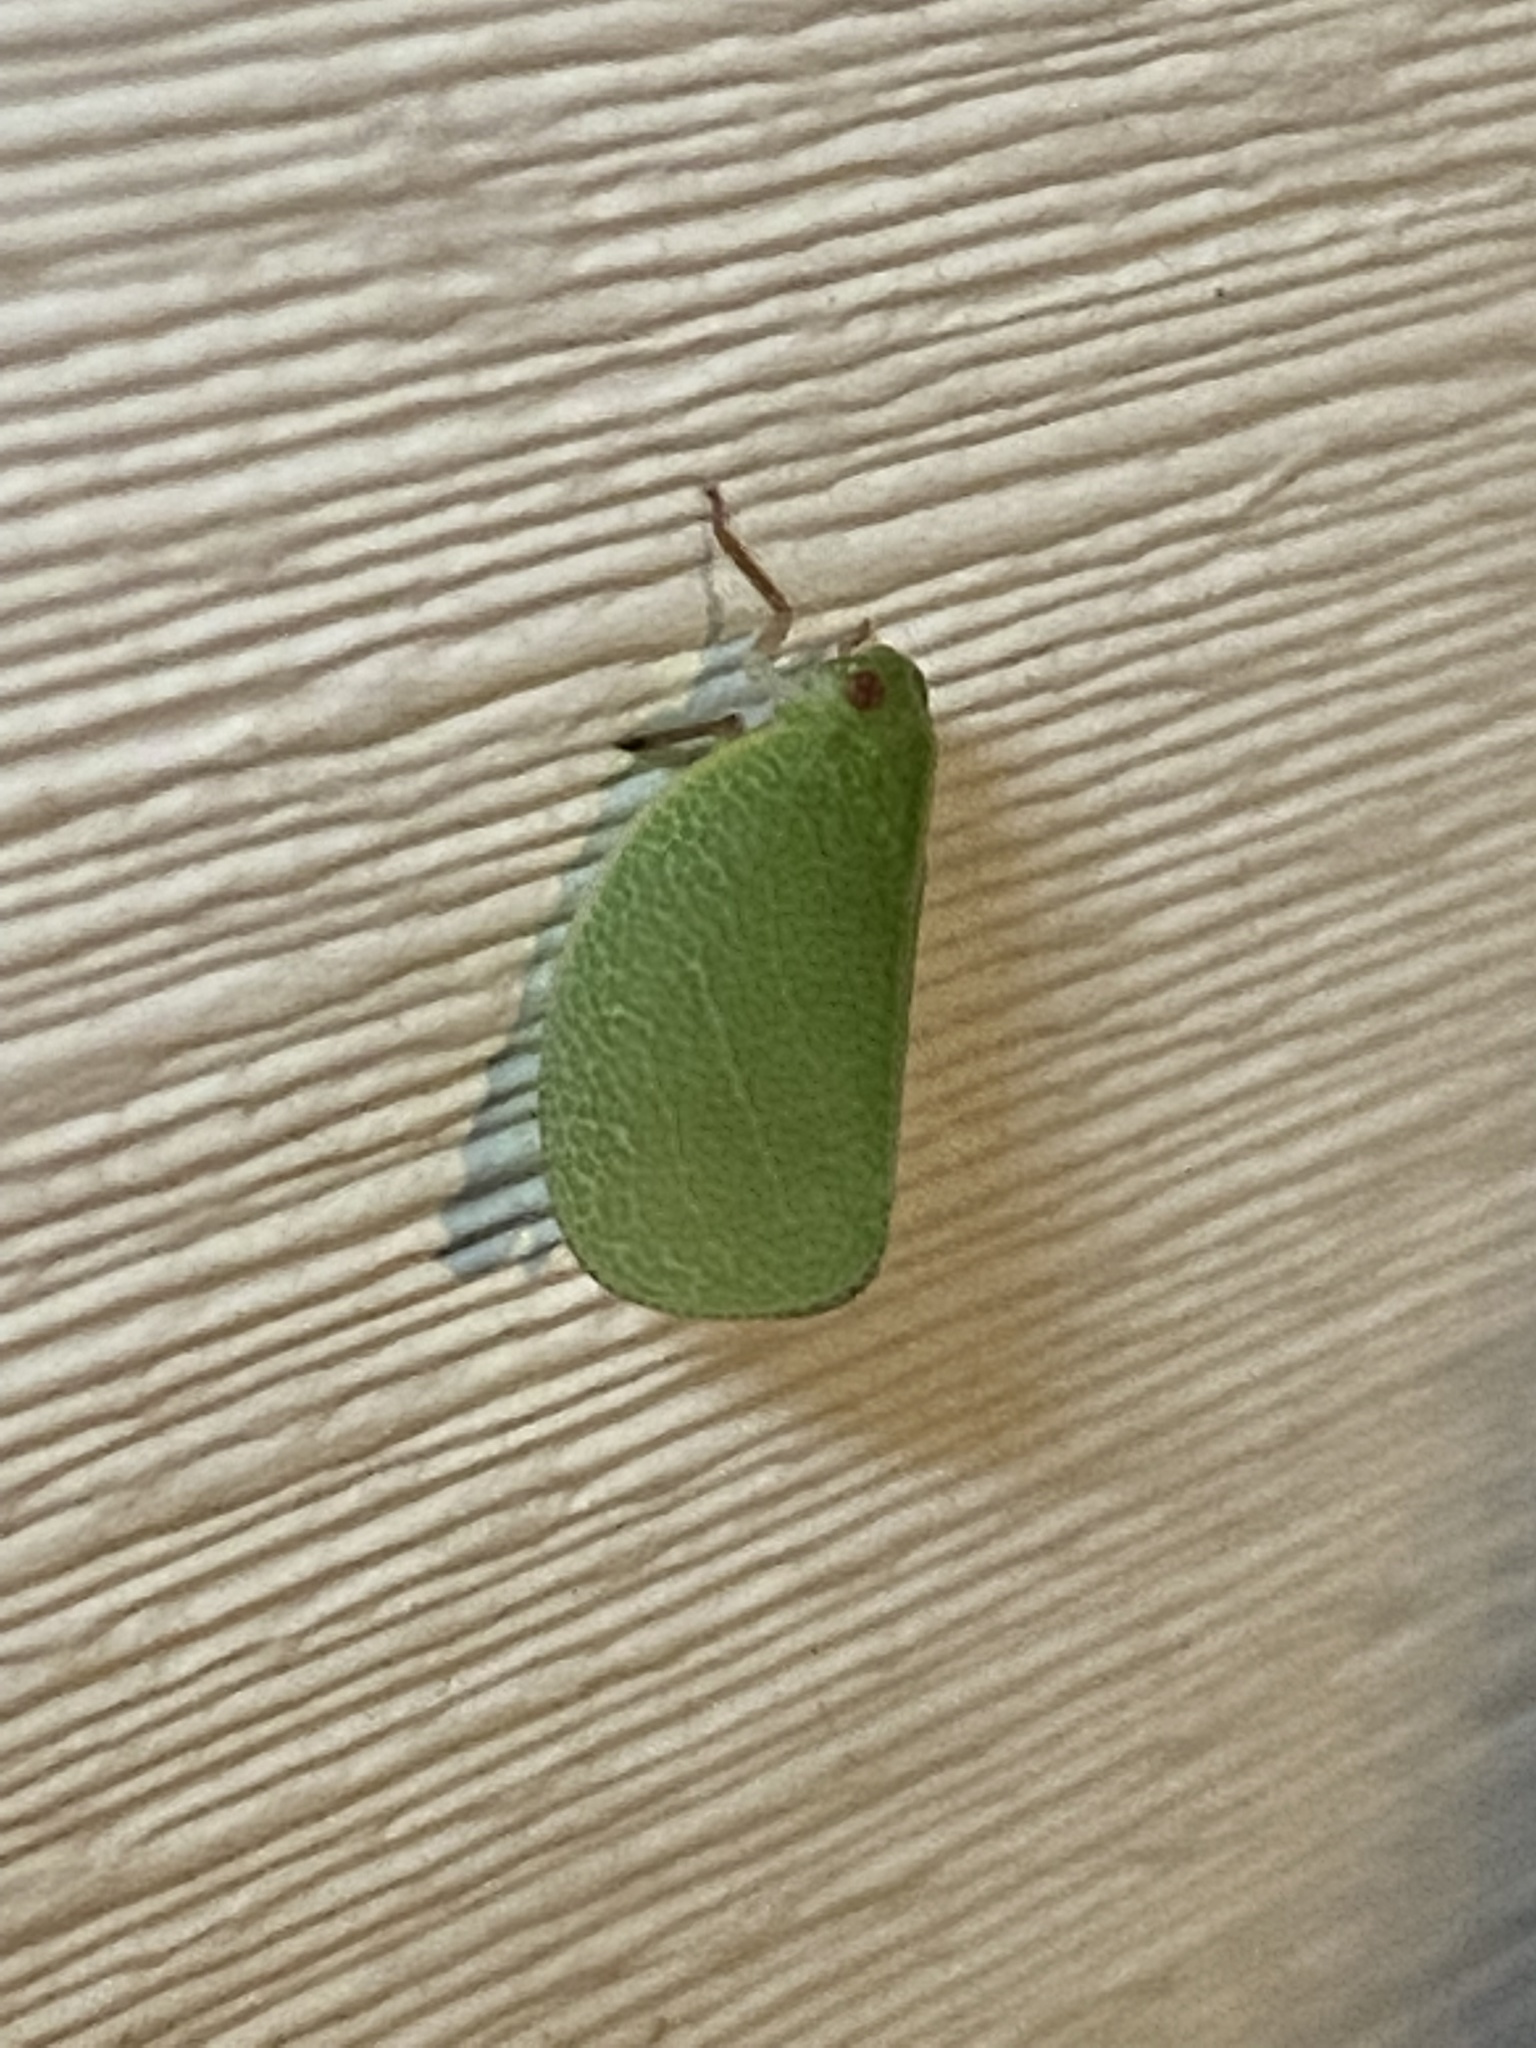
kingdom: Animalia
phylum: Arthropoda
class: Insecta
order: Hemiptera
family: Acanaloniidae
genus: Acanalonia
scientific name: Acanalonia servillei
